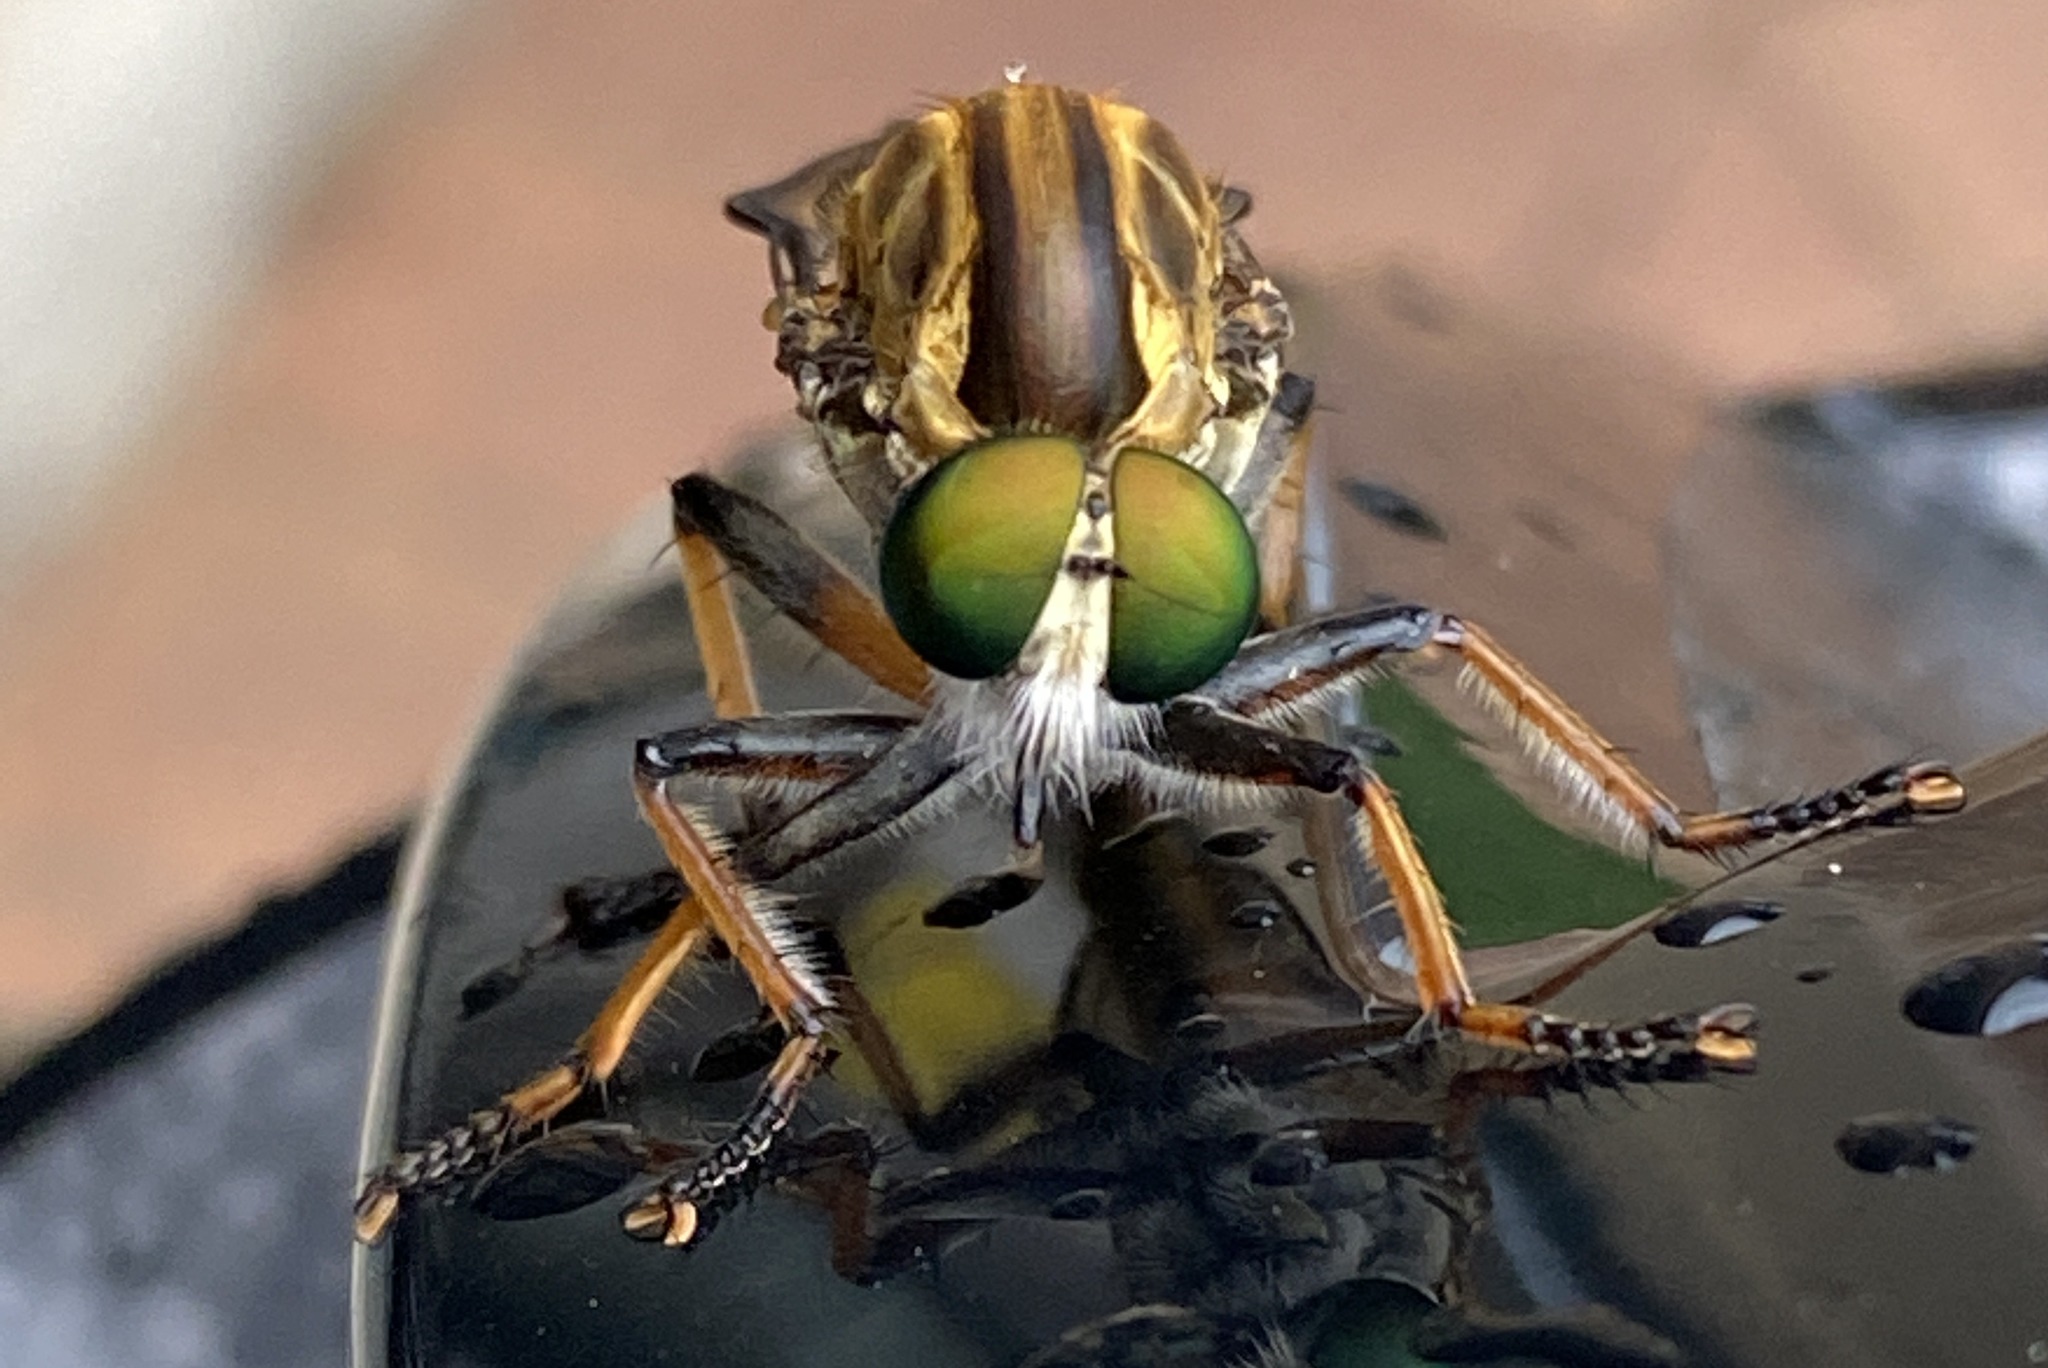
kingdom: Animalia
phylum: Arthropoda
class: Insecta
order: Diptera
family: Asilidae
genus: Ommatius
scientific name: Ommatius mackayi
